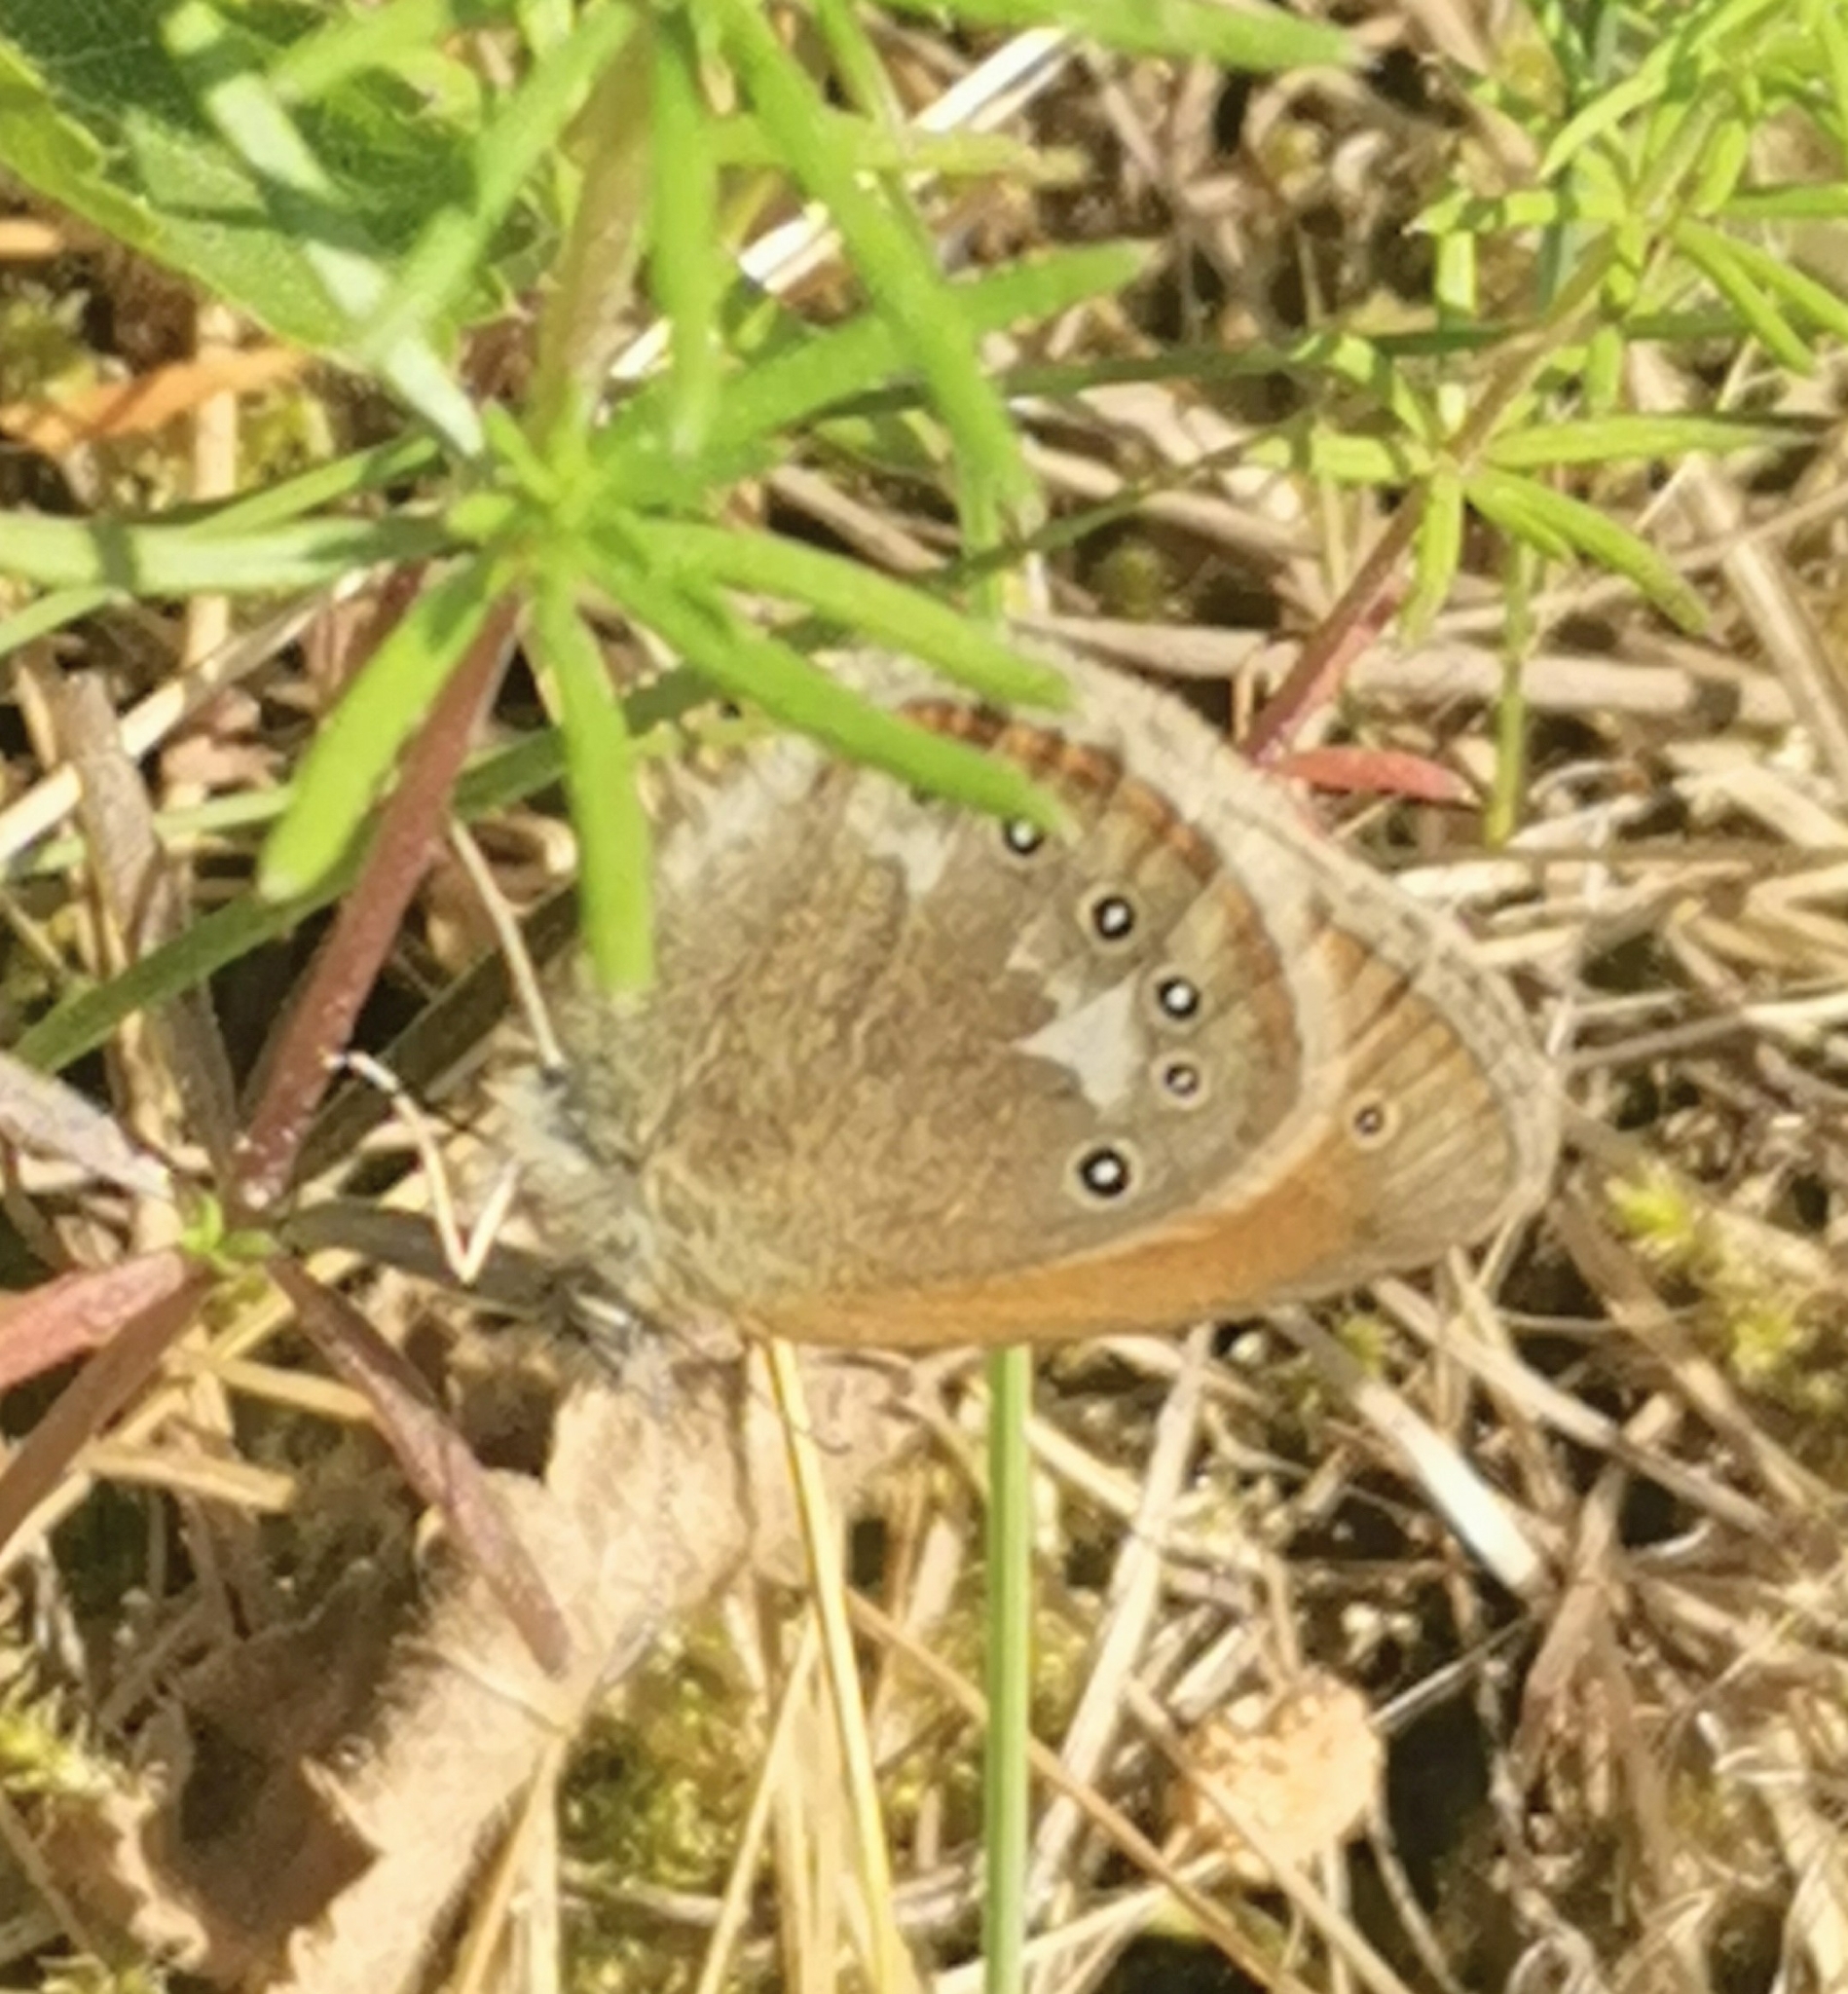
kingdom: Animalia
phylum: Arthropoda
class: Insecta
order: Lepidoptera
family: Nymphalidae
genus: Coenonympha
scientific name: Coenonympha iphis
